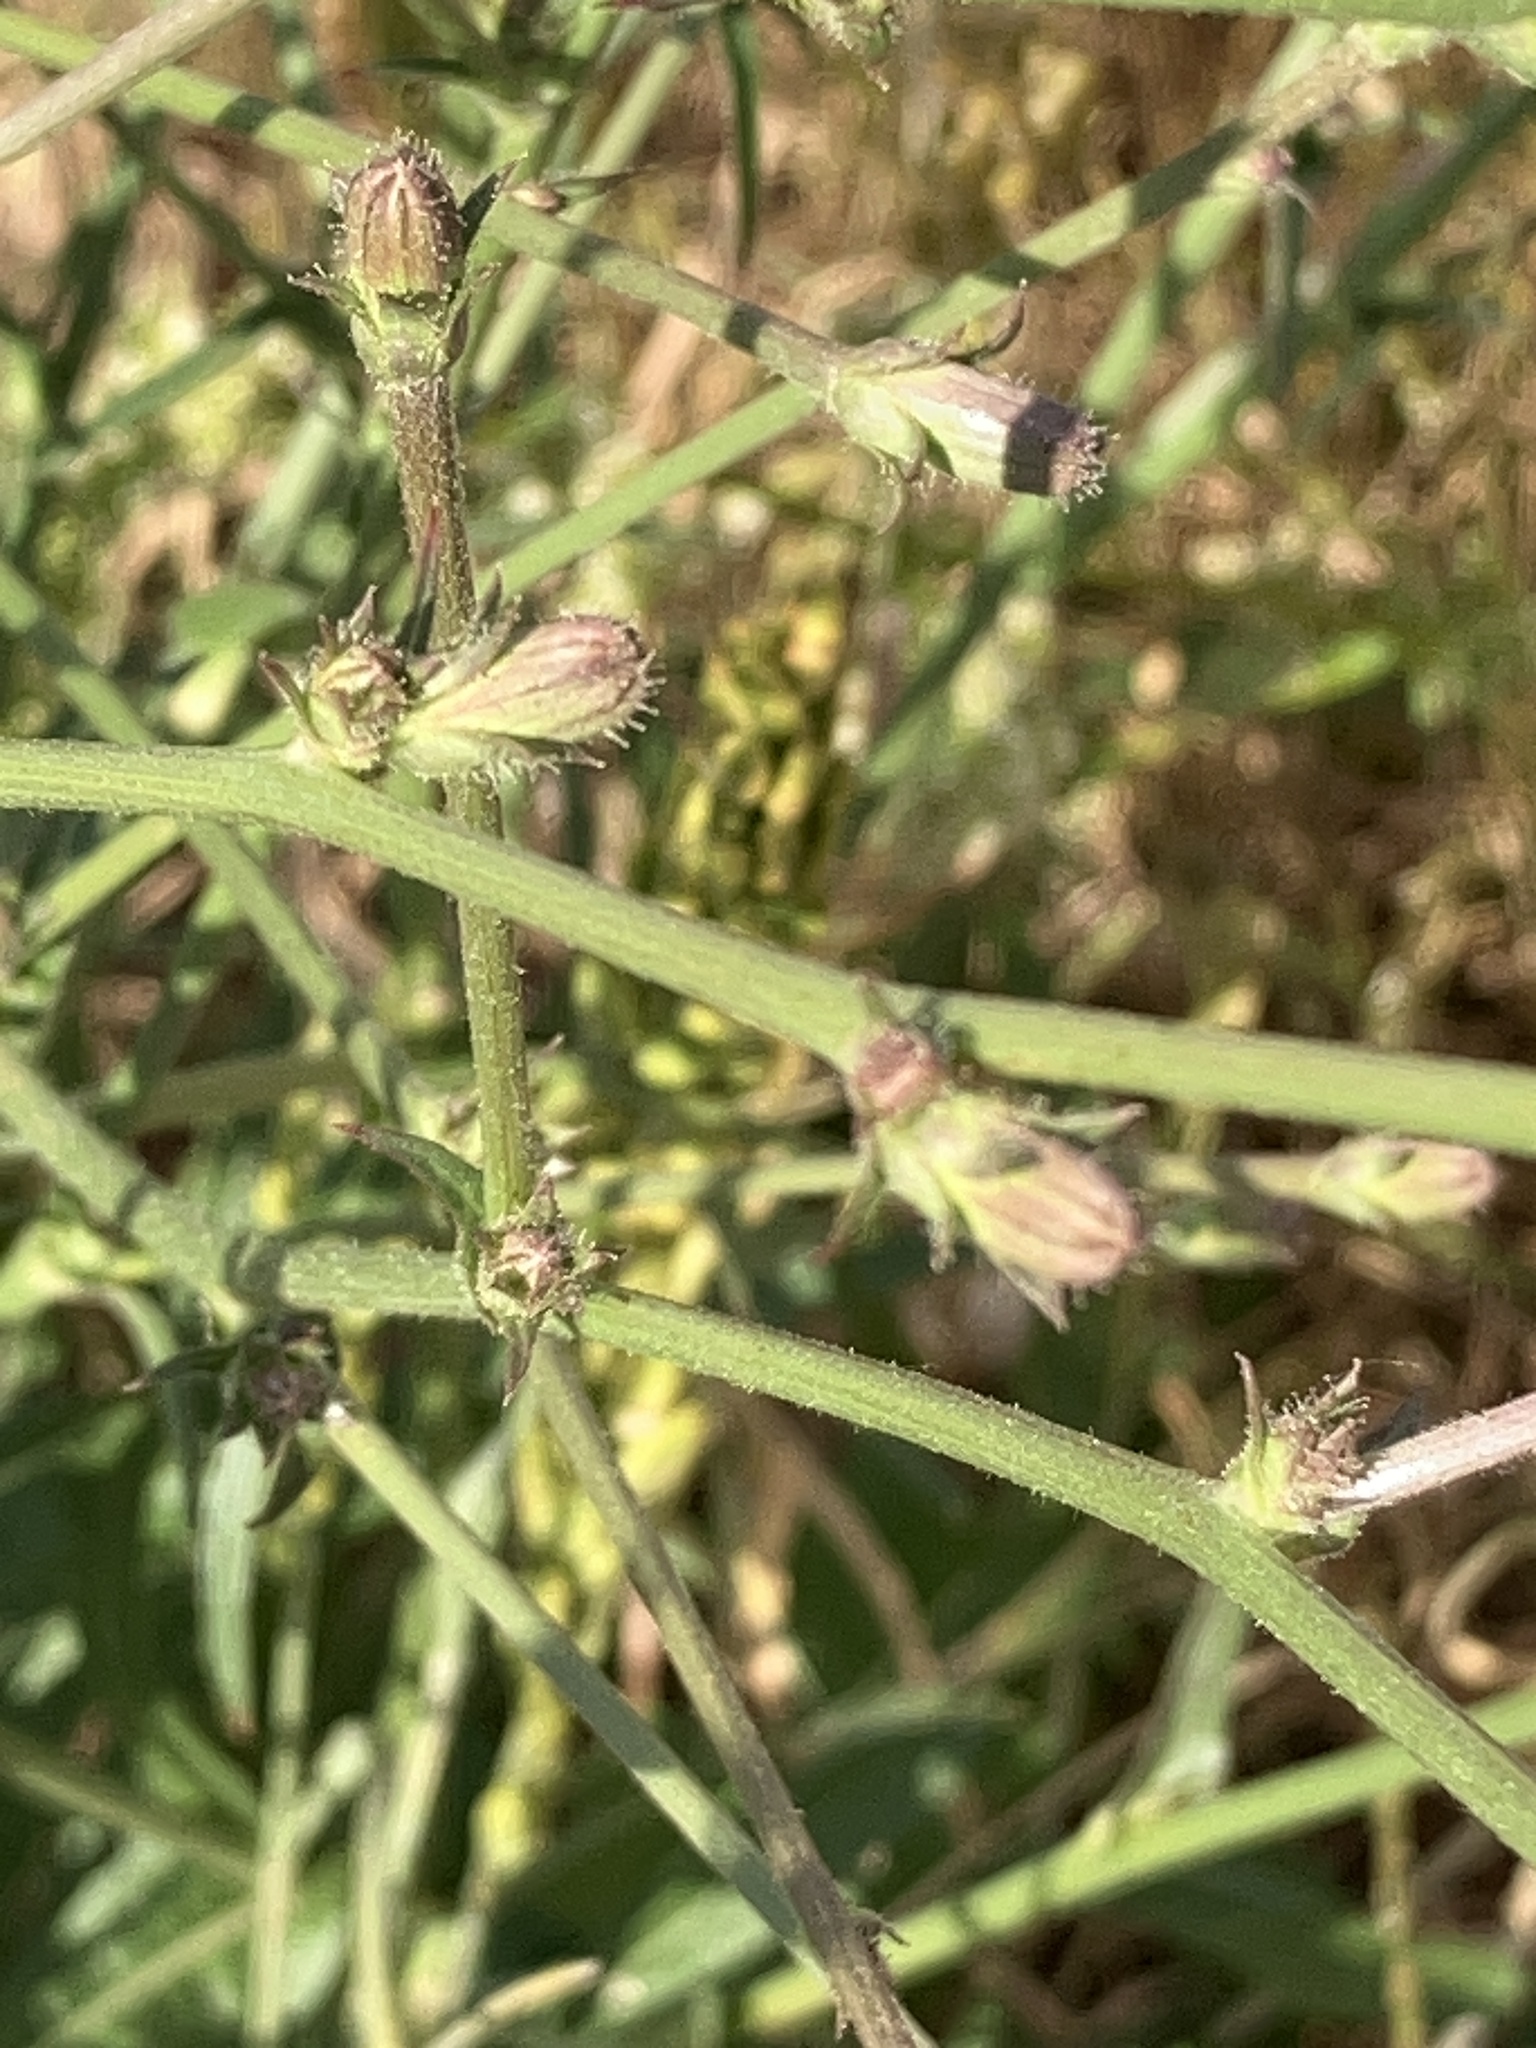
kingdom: Plantae
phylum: Tracheophyta
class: Magnoliopsida
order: Asterales
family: Asteraceae
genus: Cichorium
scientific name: Cichorium intybus
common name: Chicory
